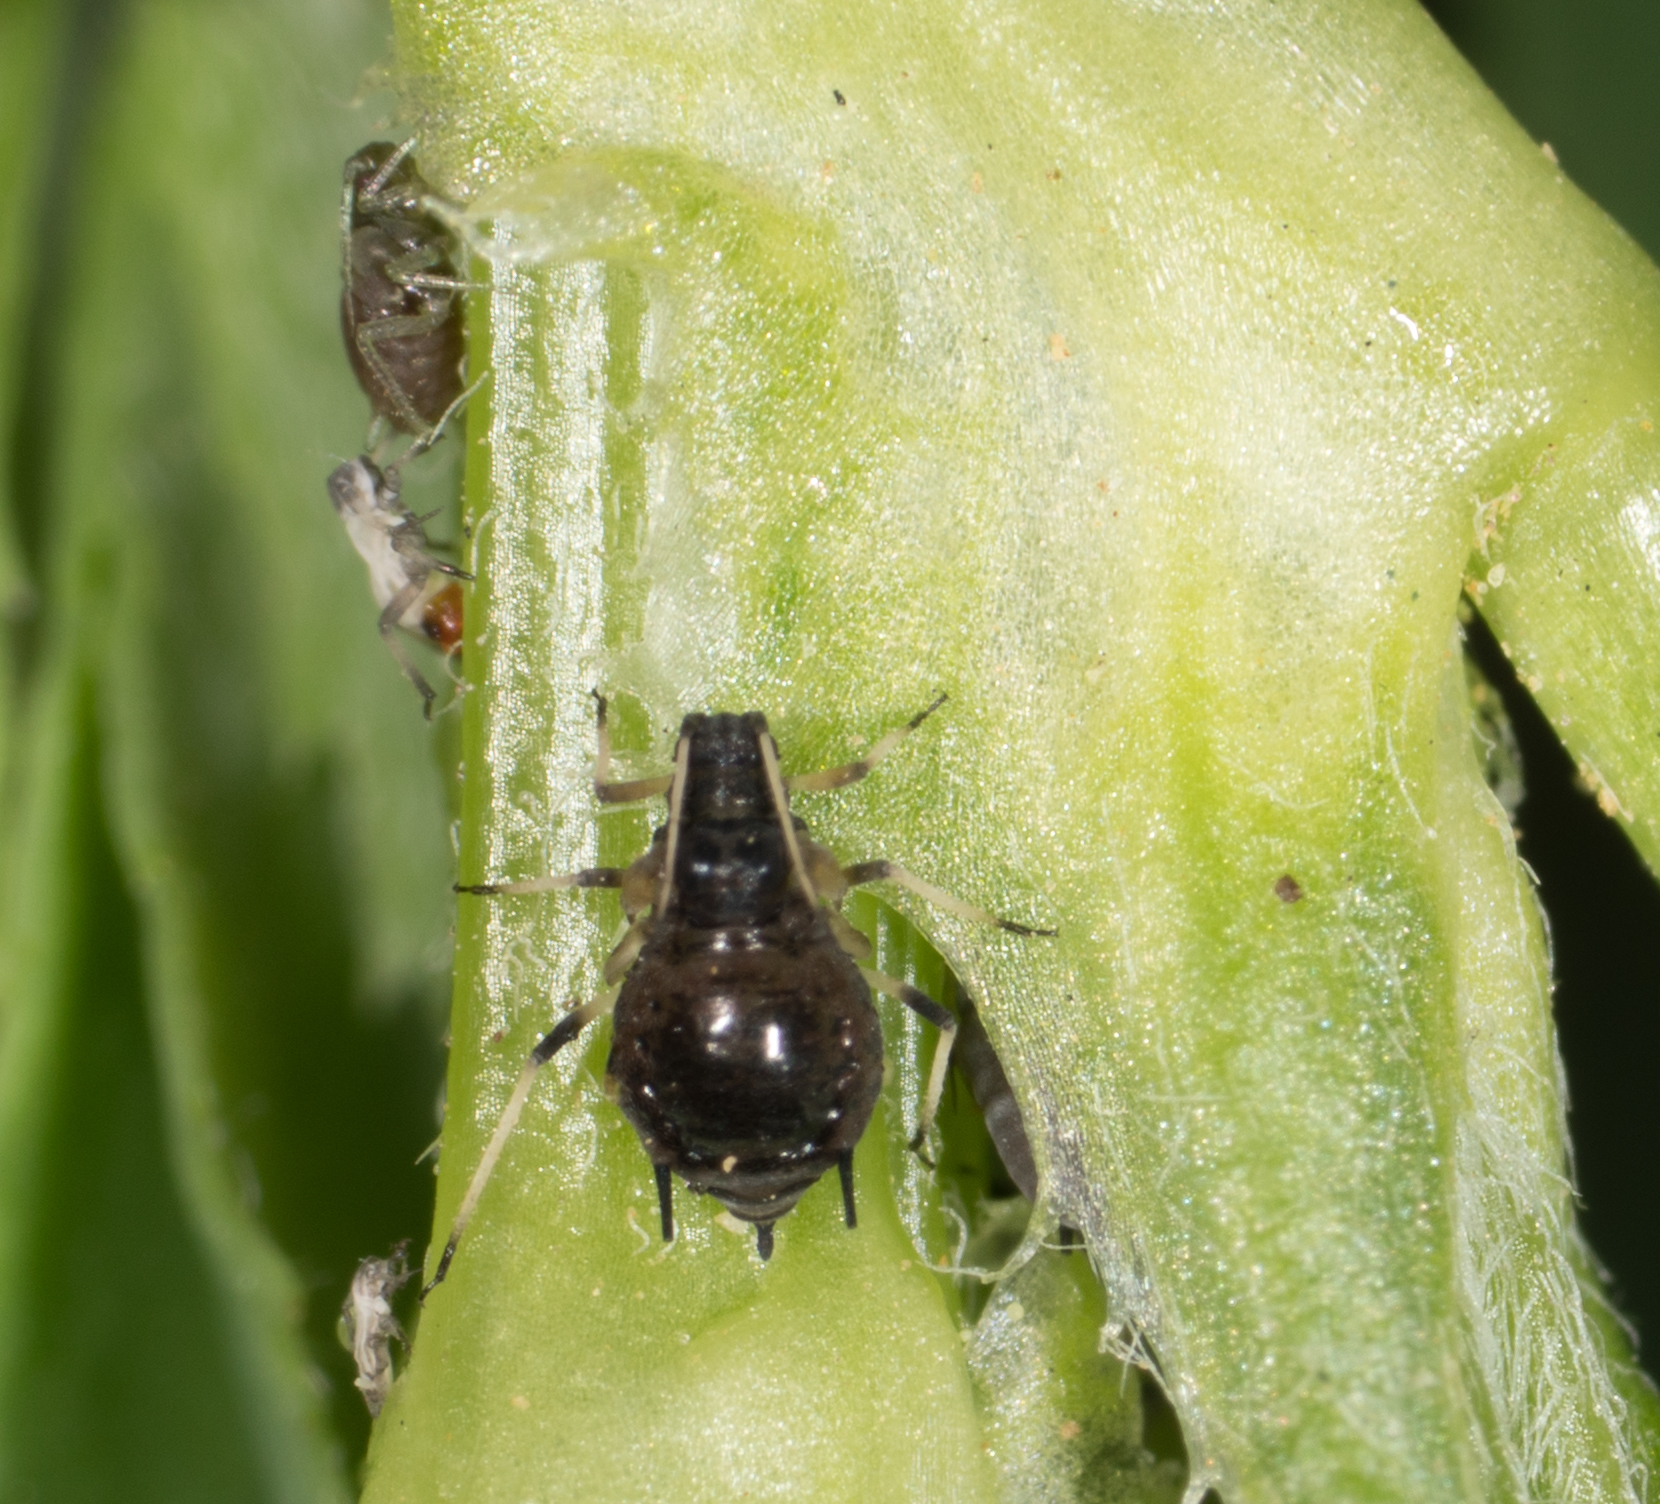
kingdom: Animalia
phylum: Arthropoda
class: Insecta
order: Hemiptera
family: Aphididae
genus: Aphis
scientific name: Aphis craccivora
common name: Cowpea aphid
